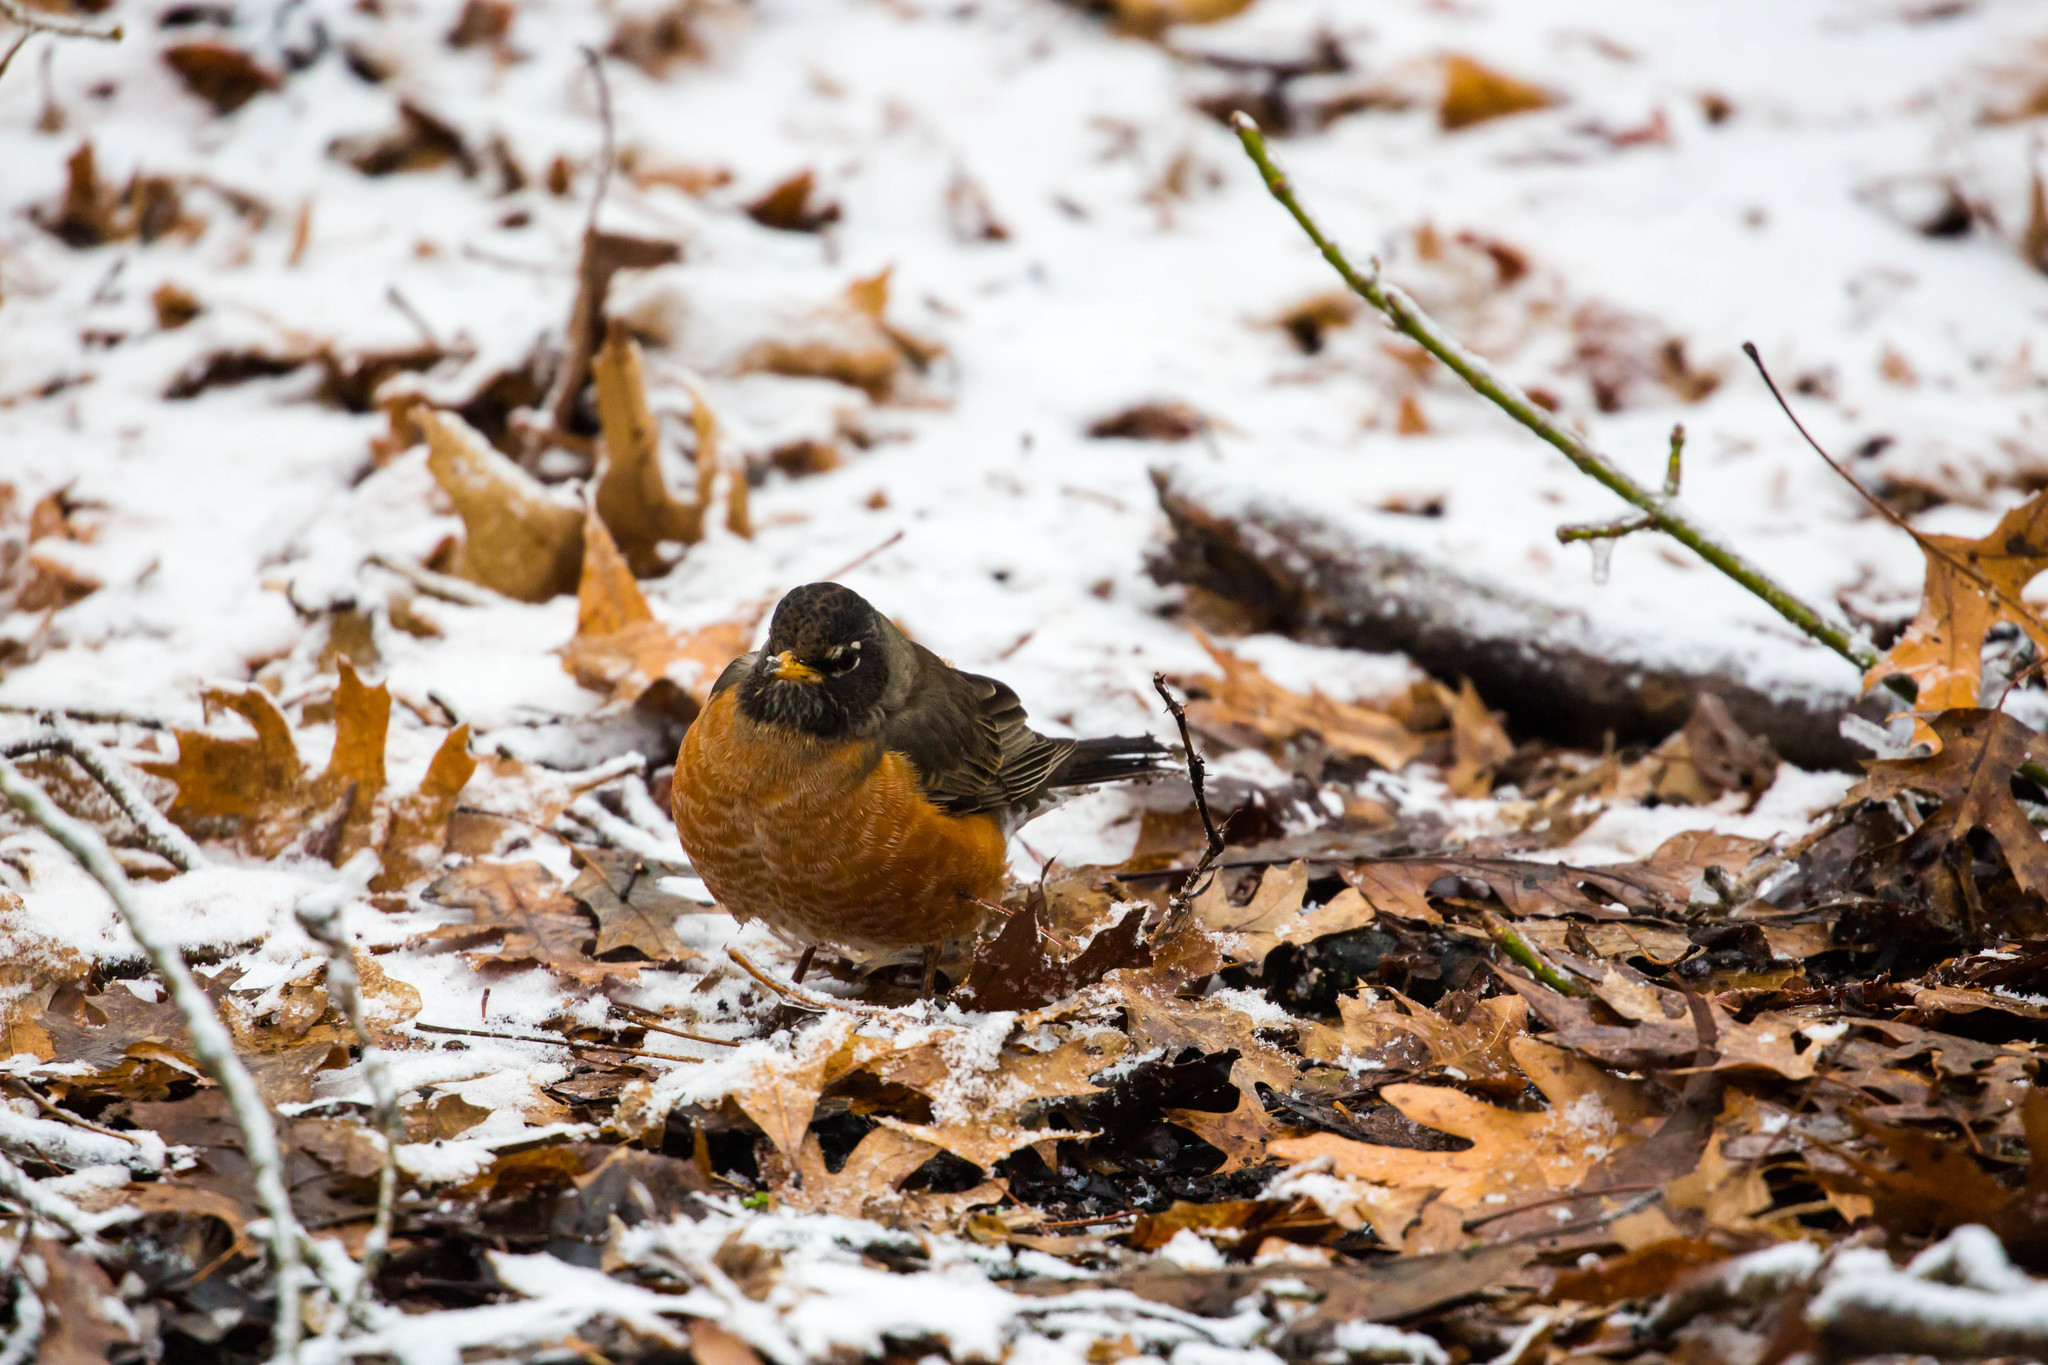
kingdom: Animalia
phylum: Chordata
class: Aves
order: Passeriformes
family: Turdidae
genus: Turdus
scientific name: Turdus migratorius
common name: American robin
